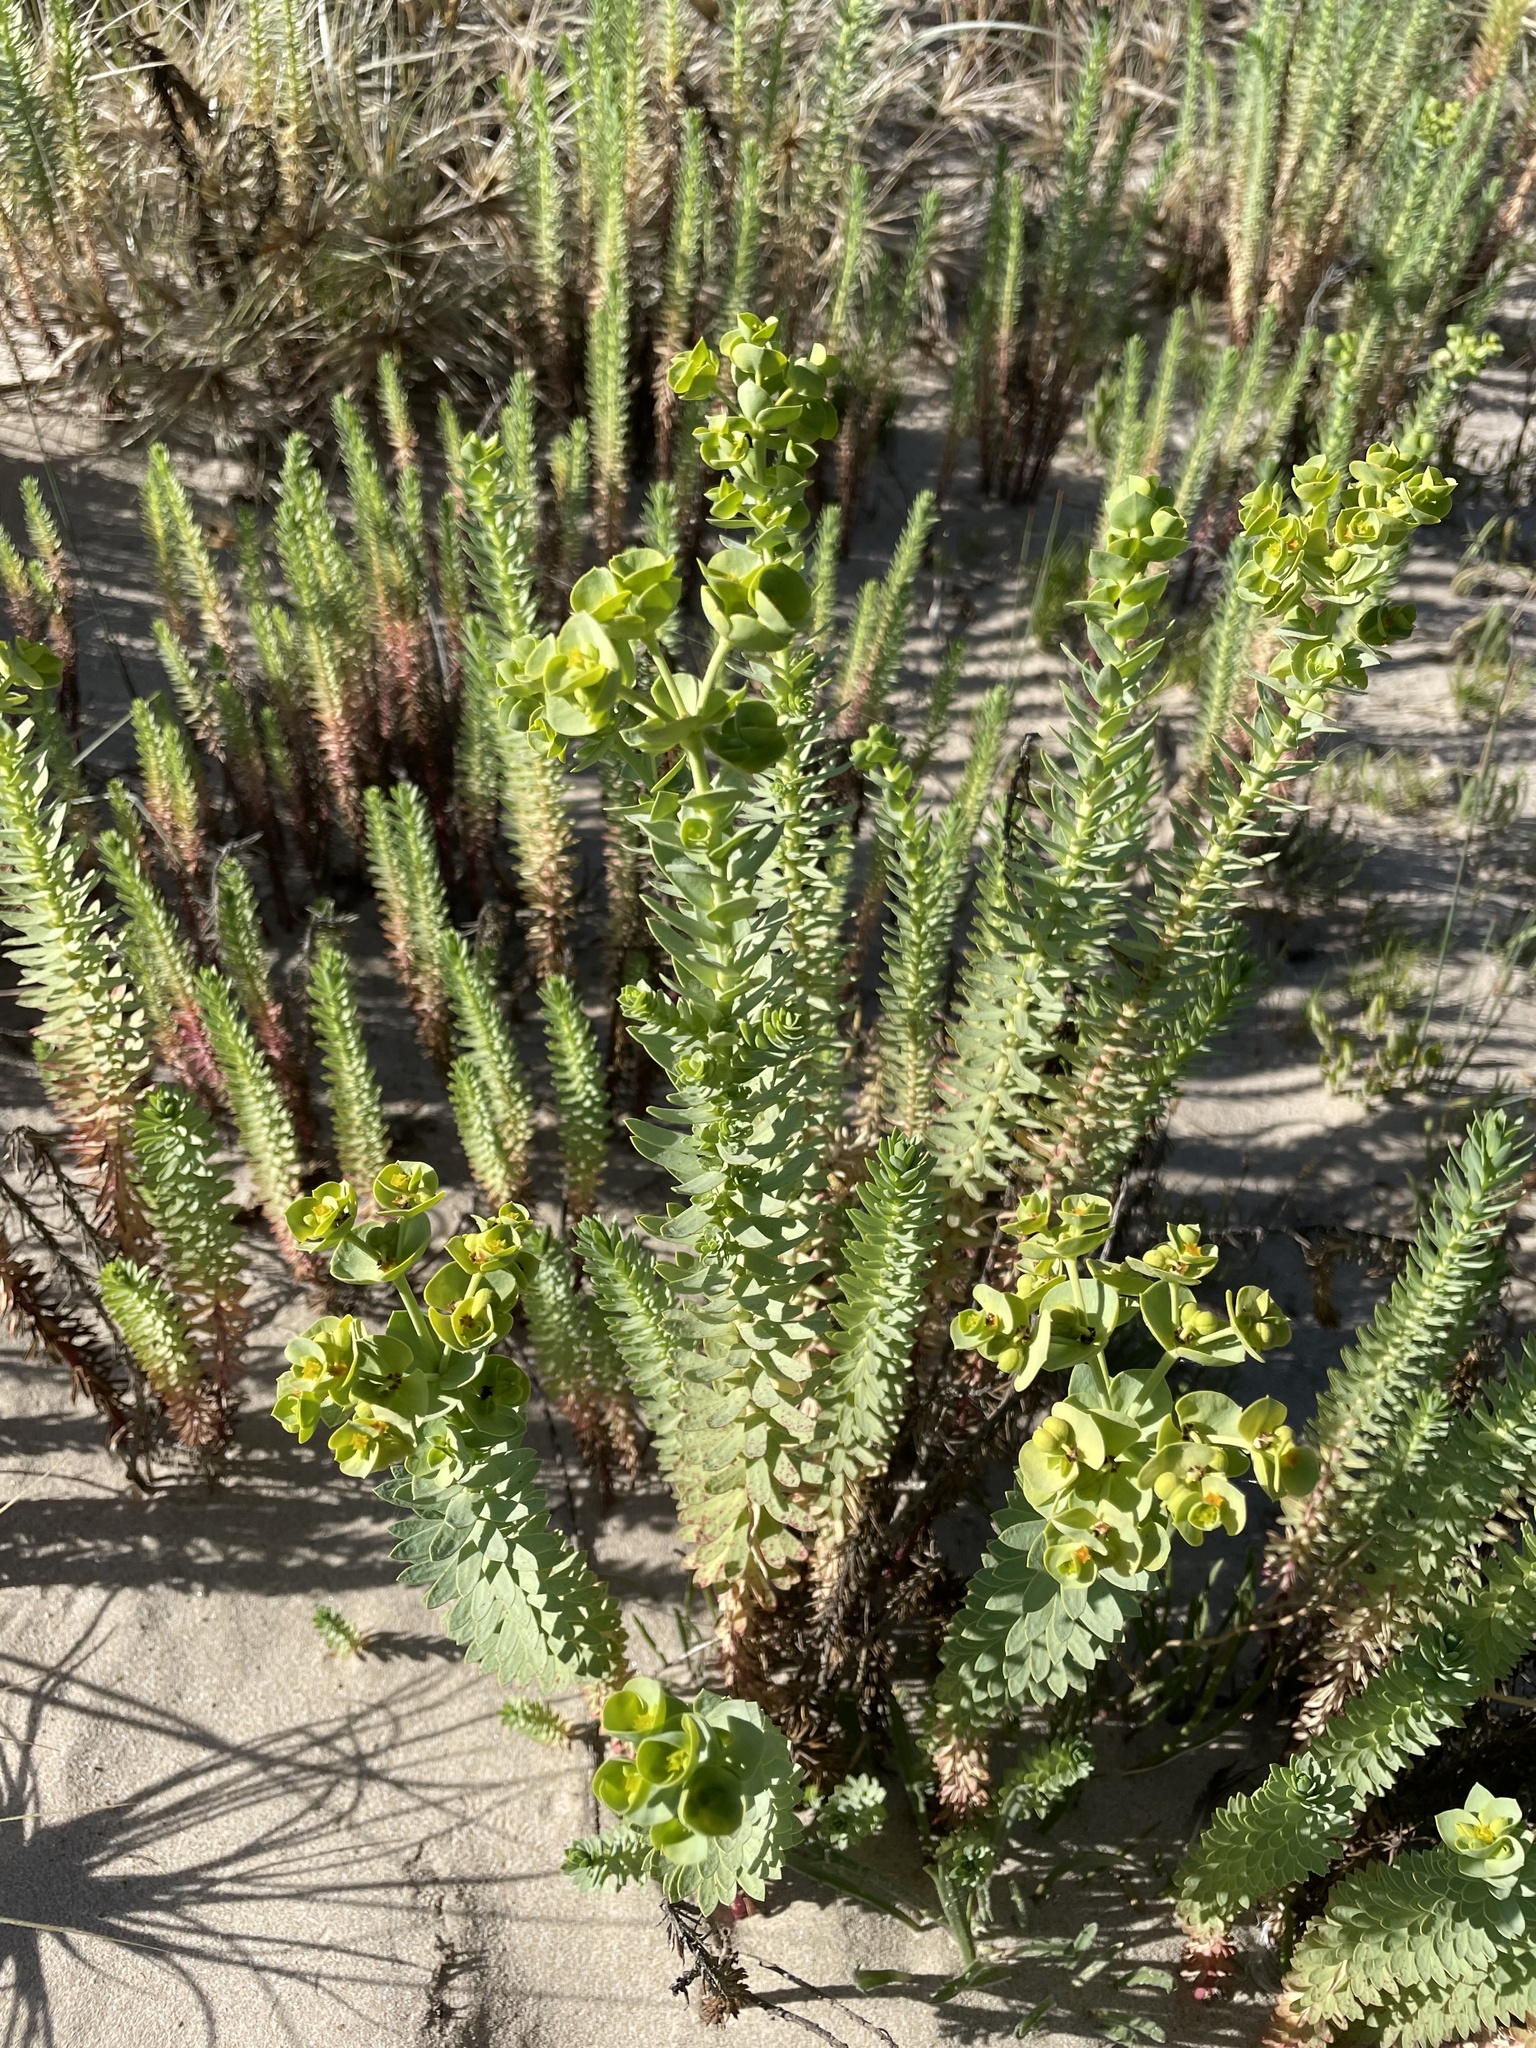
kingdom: Plantae
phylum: Tracheophyta
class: Magnoliopsida
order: Malpighiales
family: Euphorbiaceae
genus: Euphorbia
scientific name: Euphorbia paralias
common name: Sea spurge
